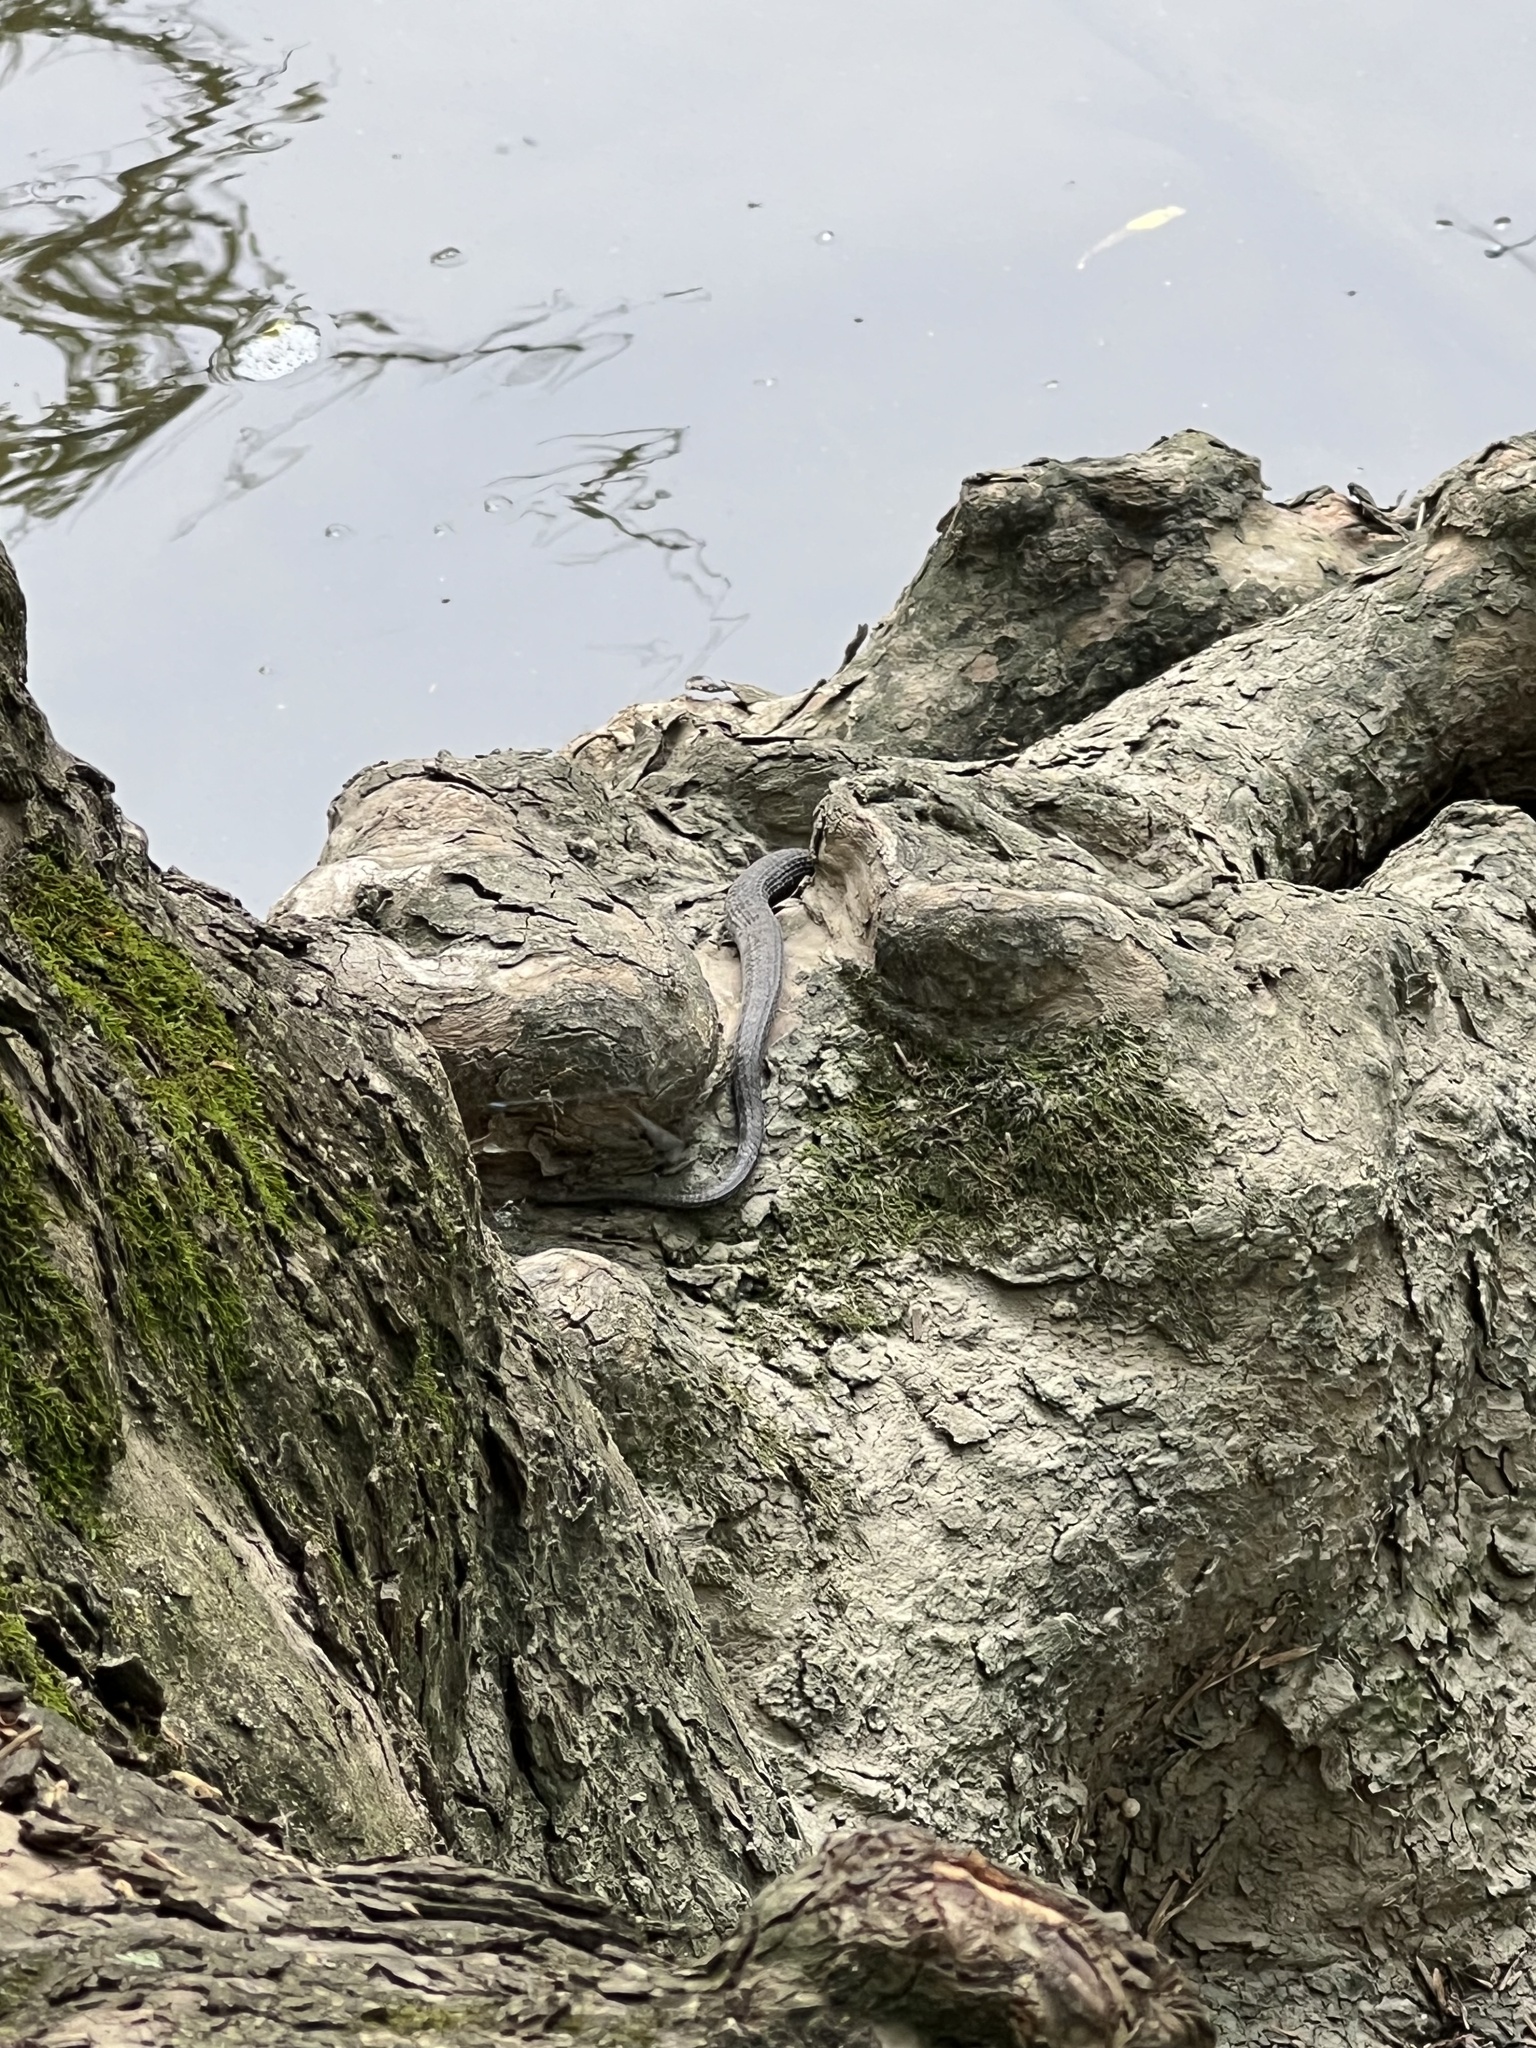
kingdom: Animalia
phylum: Chordata
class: Squamata
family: Colubridae
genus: Nerodia
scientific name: Nerodia sipedon
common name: Northern water snake
